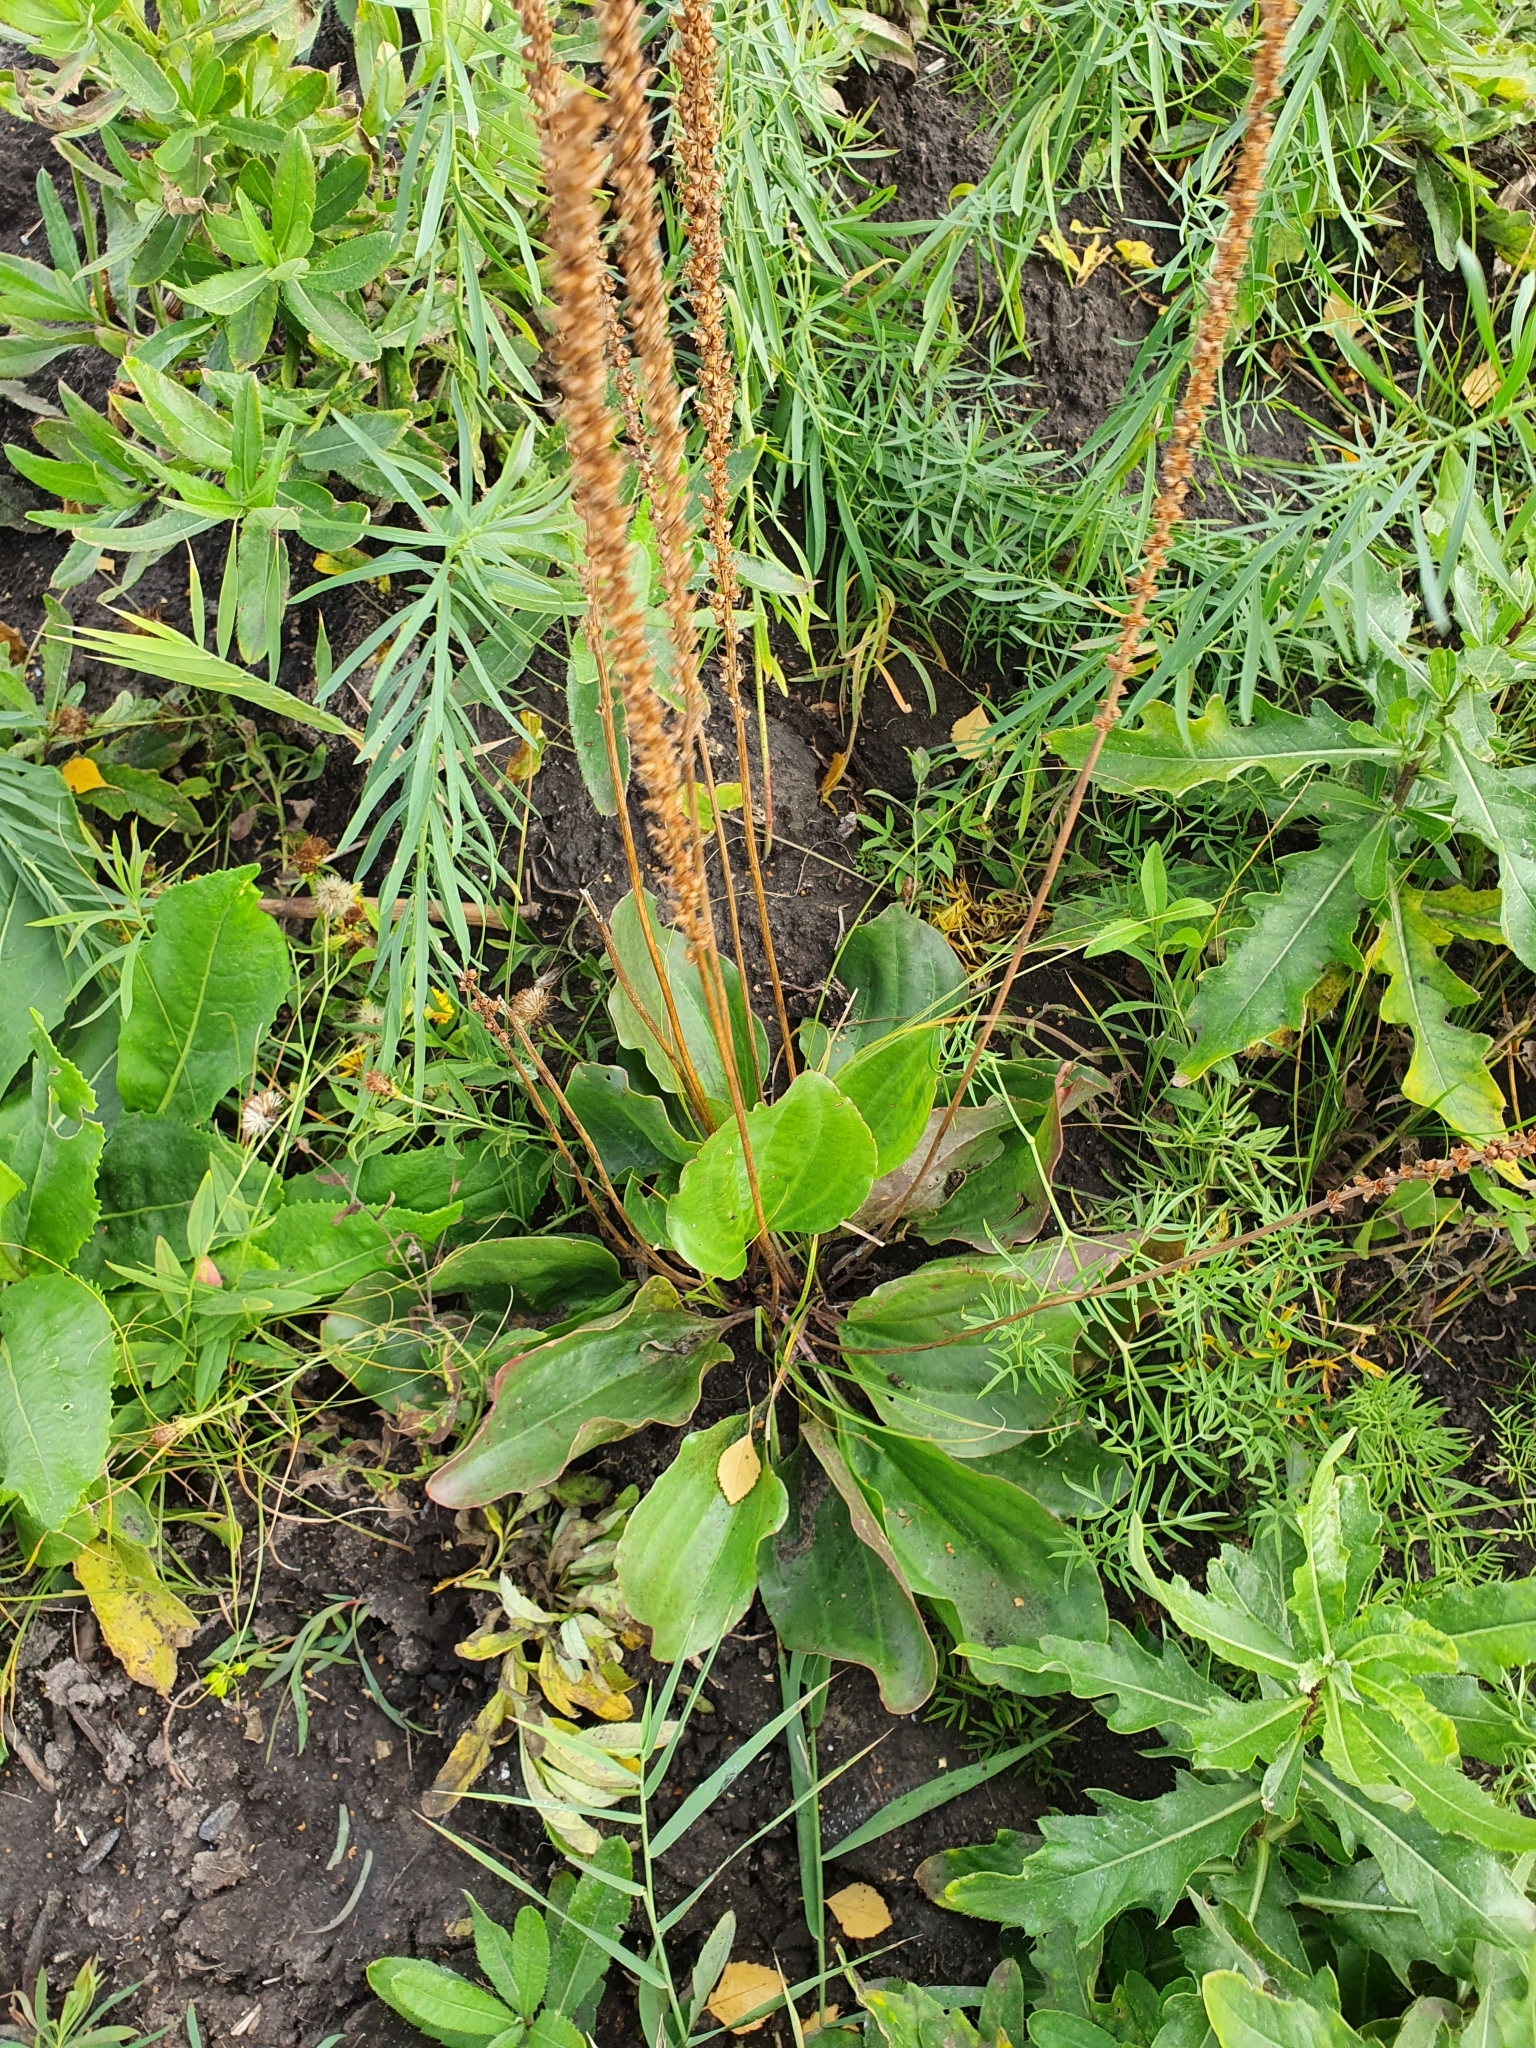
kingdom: Plantae
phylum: Tracheophyta
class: Magnoliopsida
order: Lamiales
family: Plantaginaceae
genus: Plantago
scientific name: Plantago cornuti
